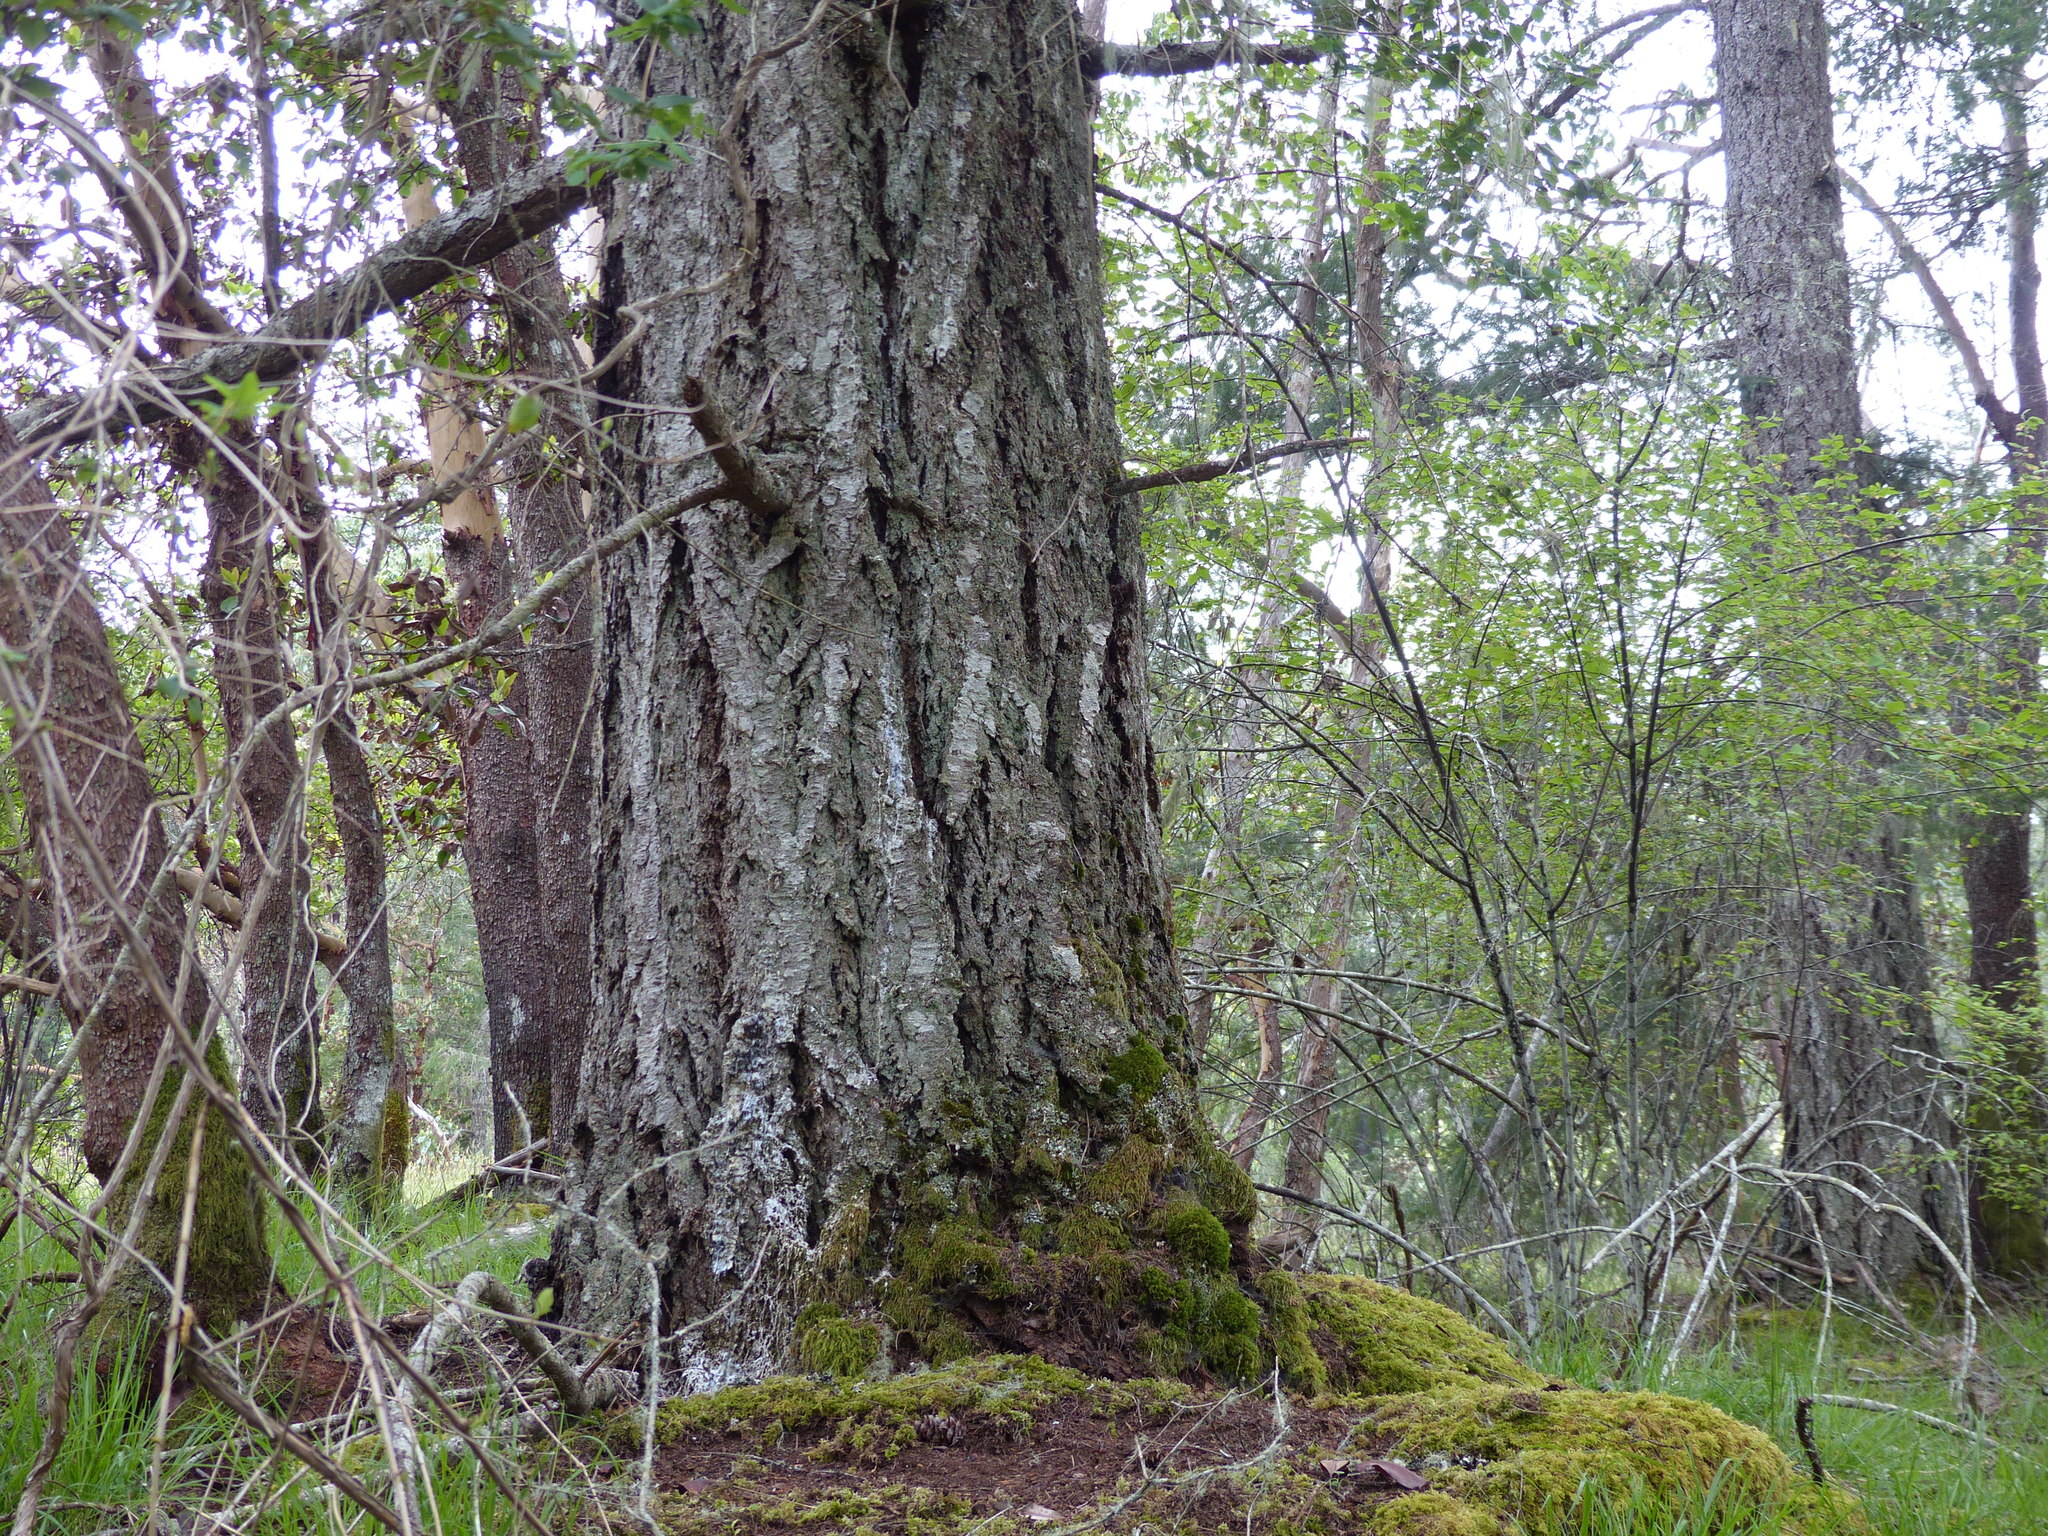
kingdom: Plantae
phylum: Tracheophyta
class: Pinopsida
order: Pinales
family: Pinaceae
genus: Pseudotsuga
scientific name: Pseudotsuga menziesii
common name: Douglas fir
